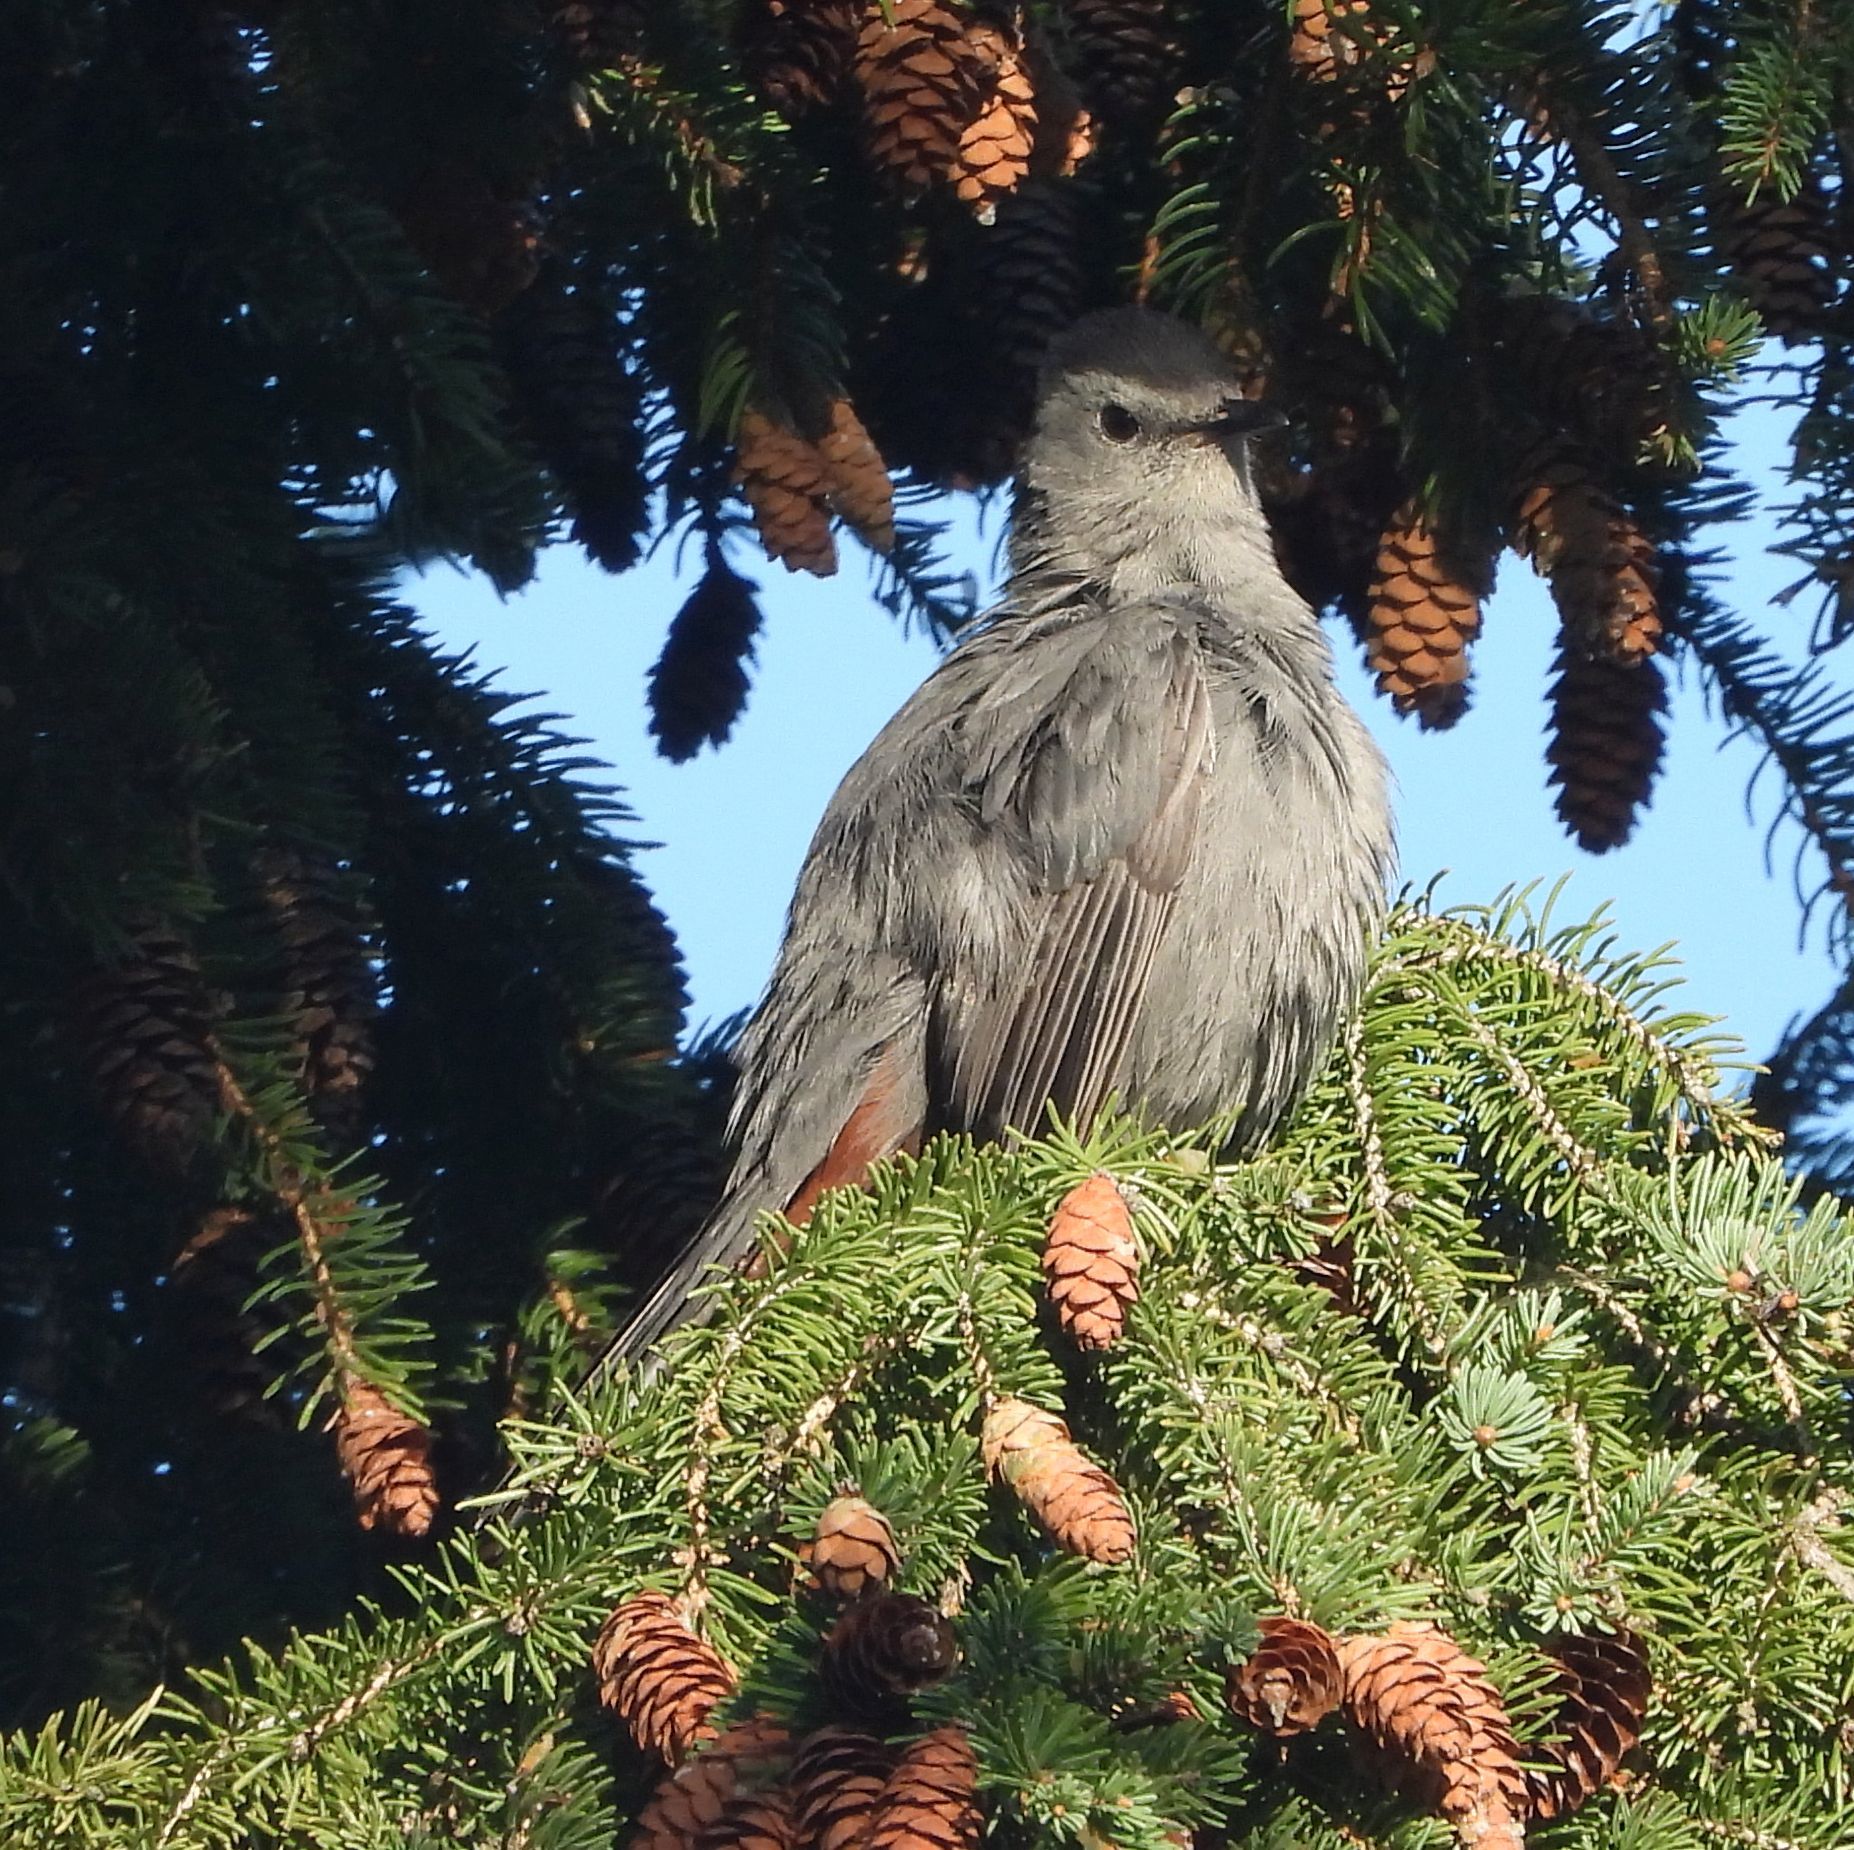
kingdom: Animalia
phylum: Chordata
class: Aves
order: Passeriformes
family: Mimidae
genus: Dumetella
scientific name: Dumetella carolinensis
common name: Gray catbird
